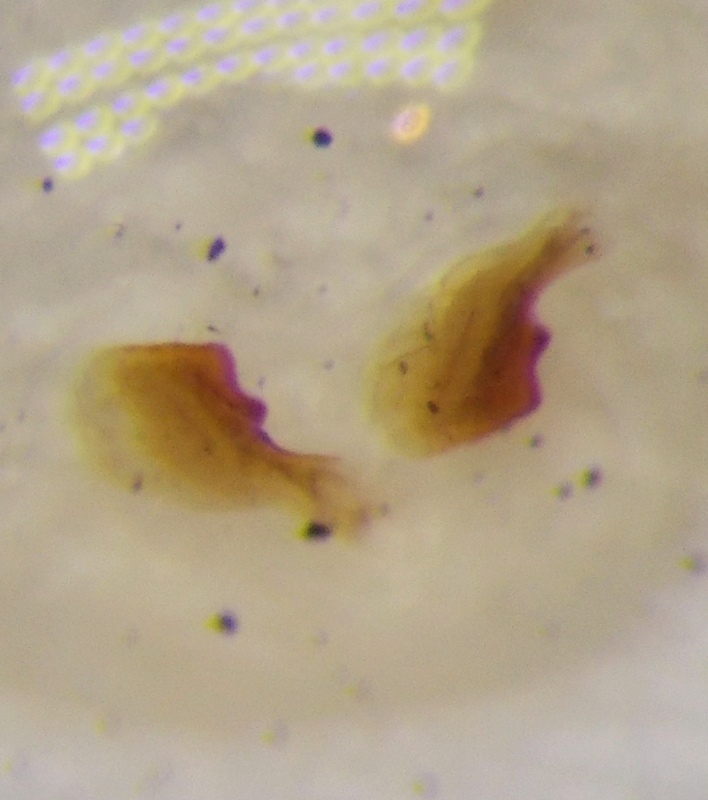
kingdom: Animalia
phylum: Arthropoda
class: Insecta
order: Hemiptera
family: Coreidae
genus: Coriomeris
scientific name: Coriomeris hirticornis
